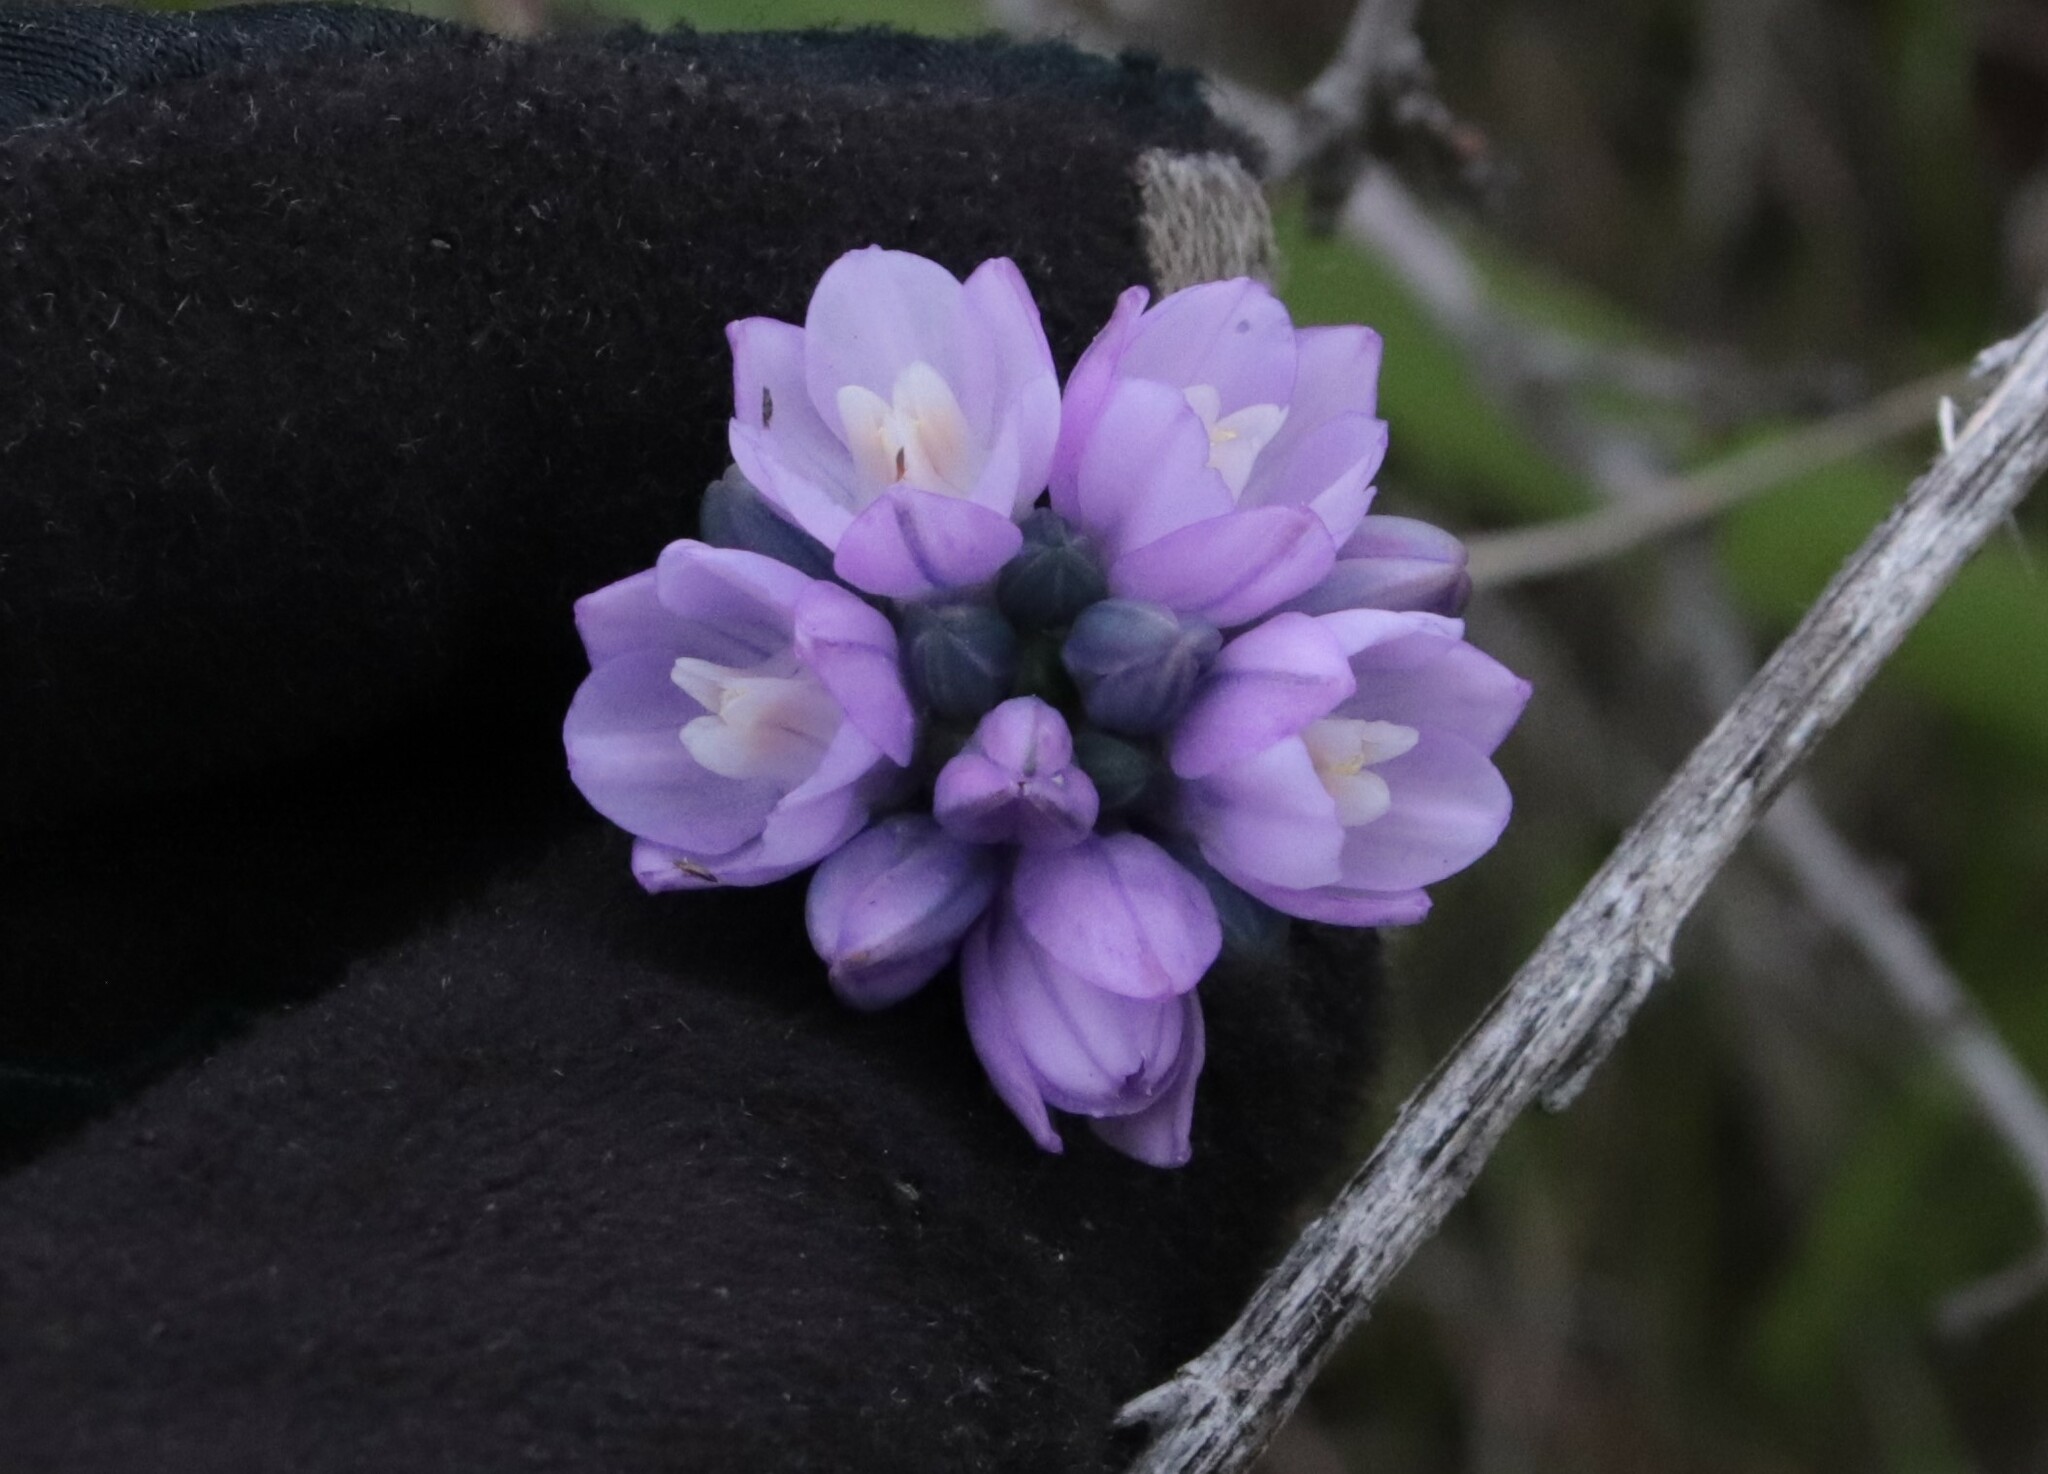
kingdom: Plantae
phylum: Tracheophyta
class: Liliopsida
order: Asparagales
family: Asparagaceae
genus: Dipterostemon
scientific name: Dipterostemon capitatus
